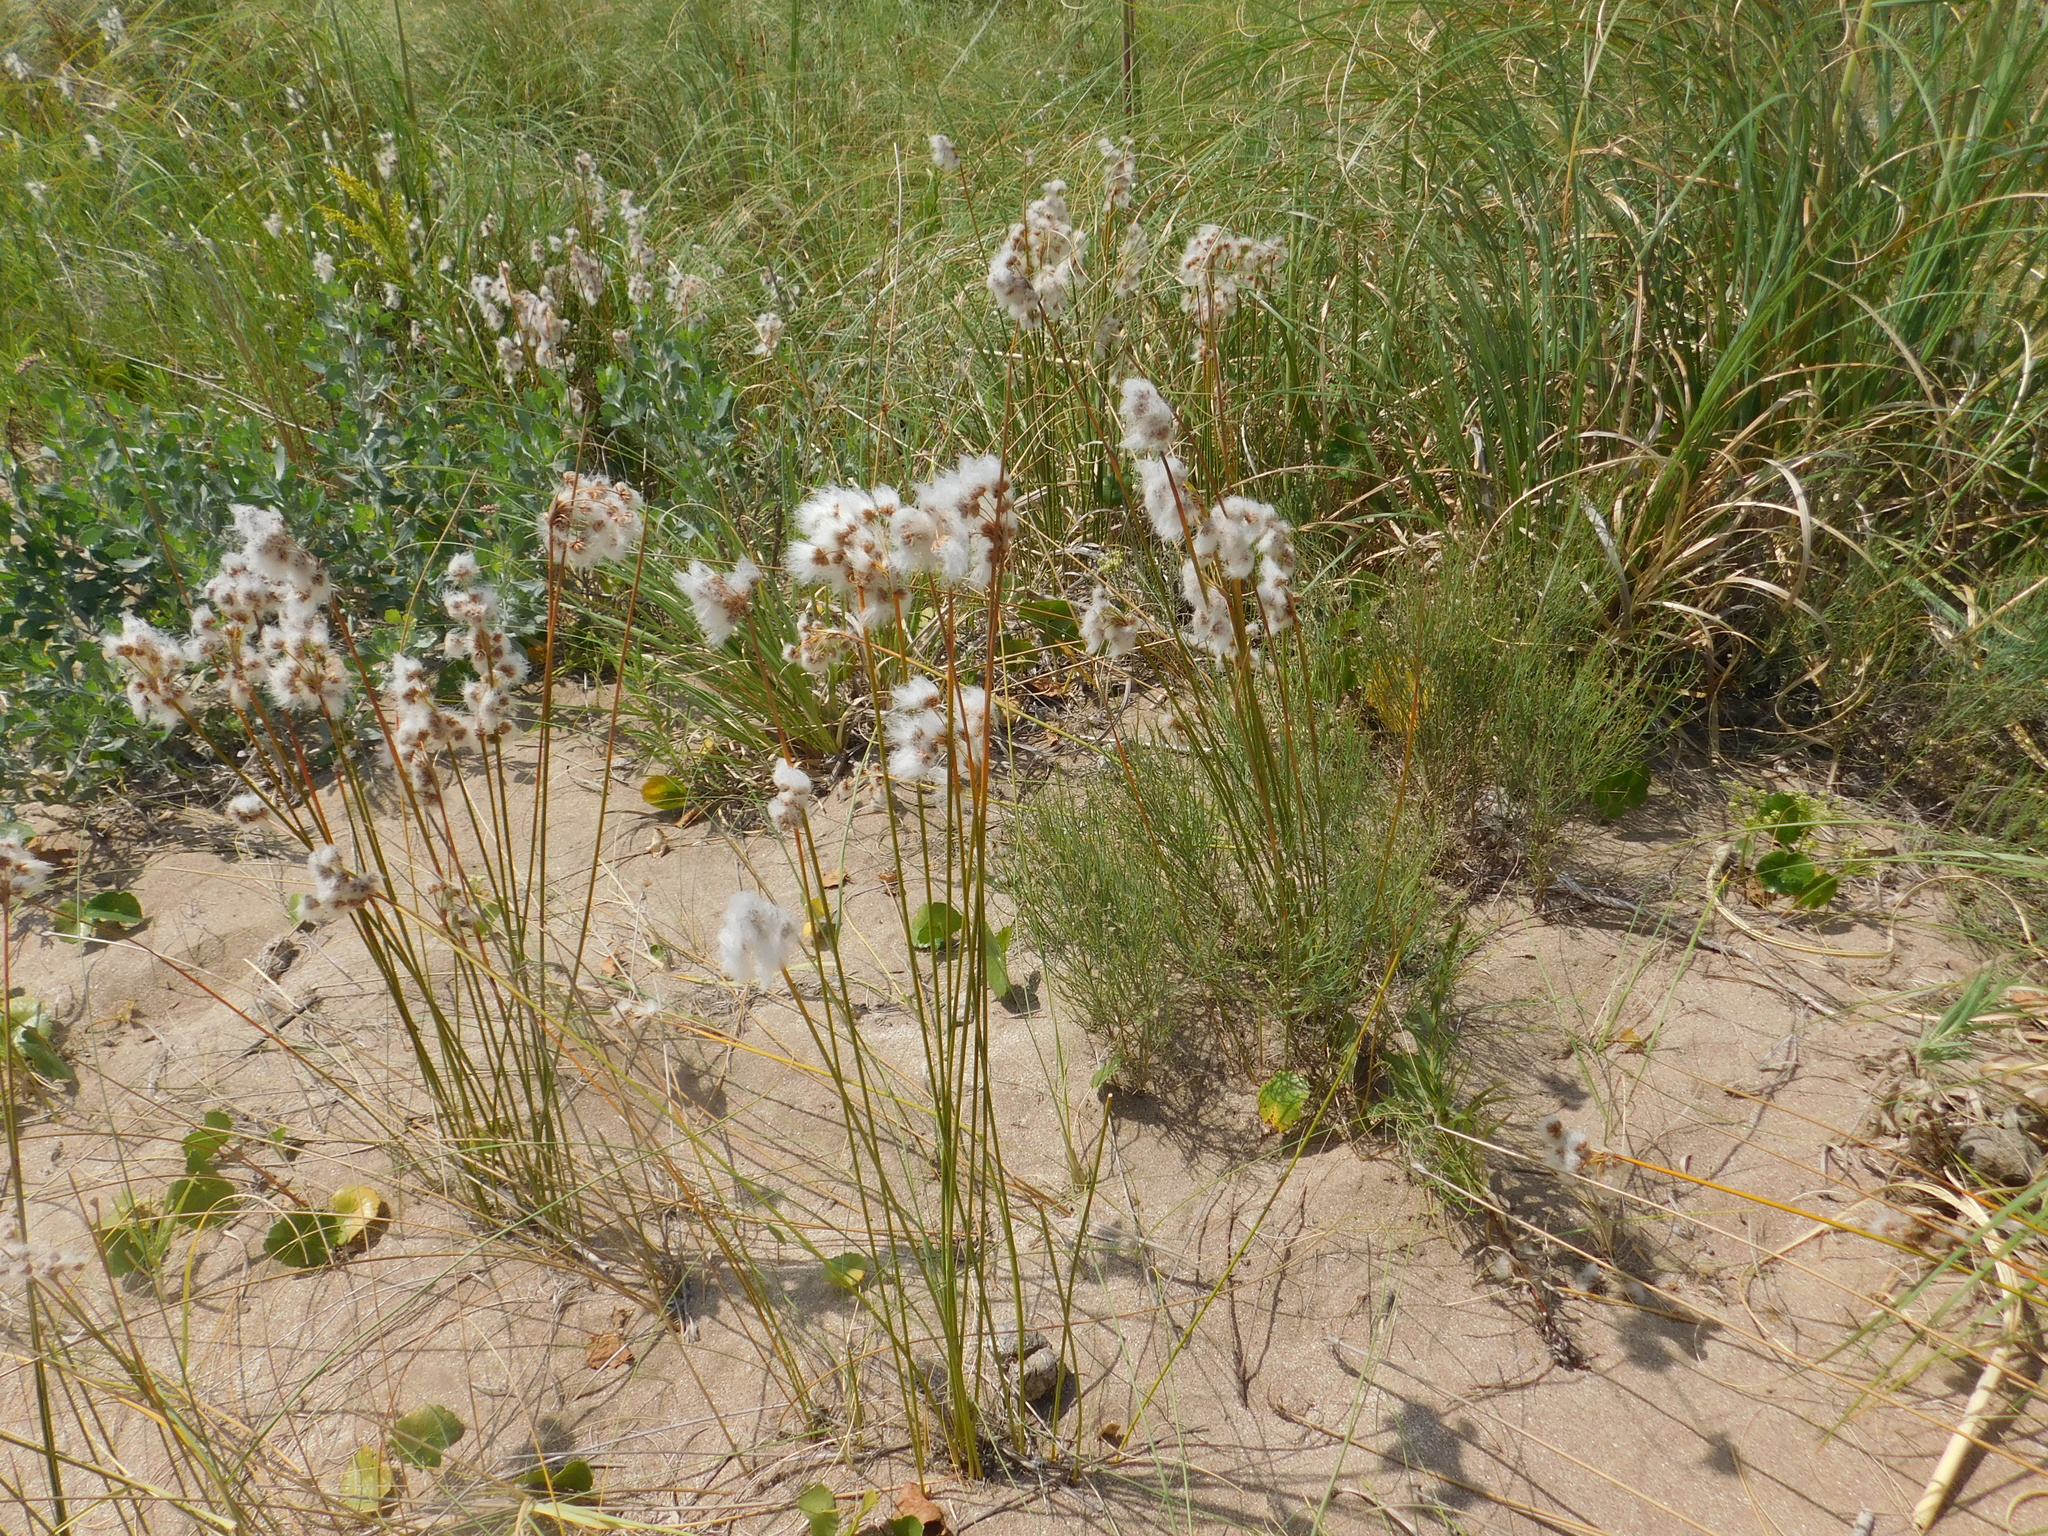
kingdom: Plantae
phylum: Tracheophyta
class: Liliopsida
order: Poales
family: Cyperaceae
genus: Cyperus
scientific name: Cyperus trigynus
